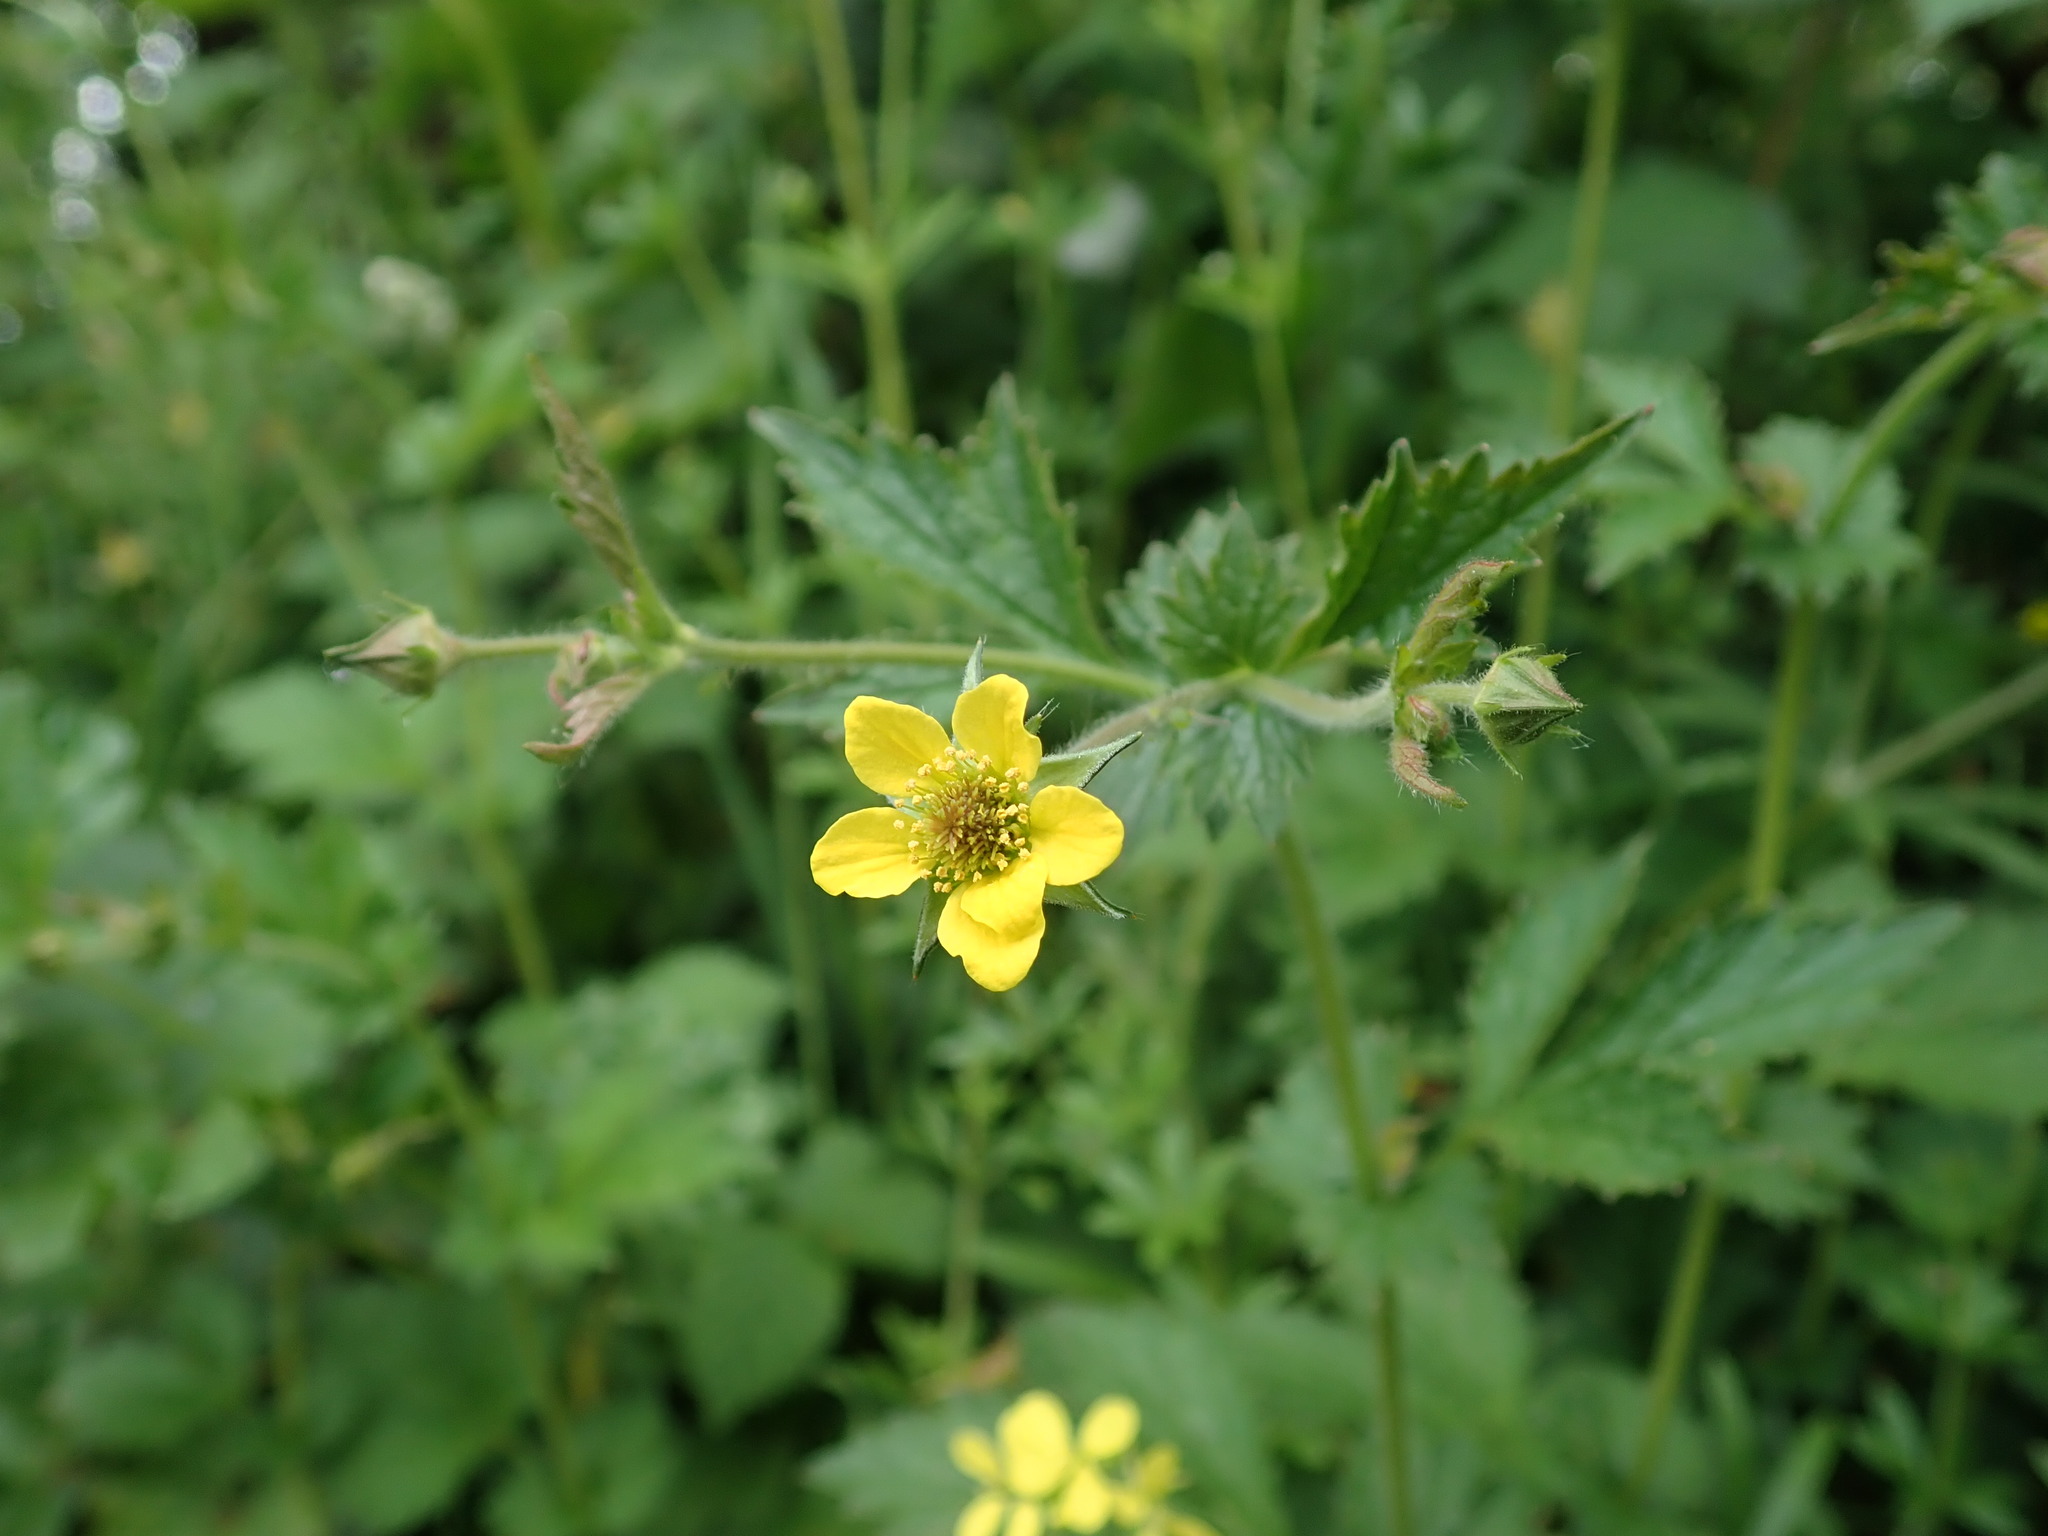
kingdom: Plantae
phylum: Tracheophyta
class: Magnoliopsida
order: Rosales
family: Rosaceae
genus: Geum
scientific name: Geum urbanum
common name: Wood avens
